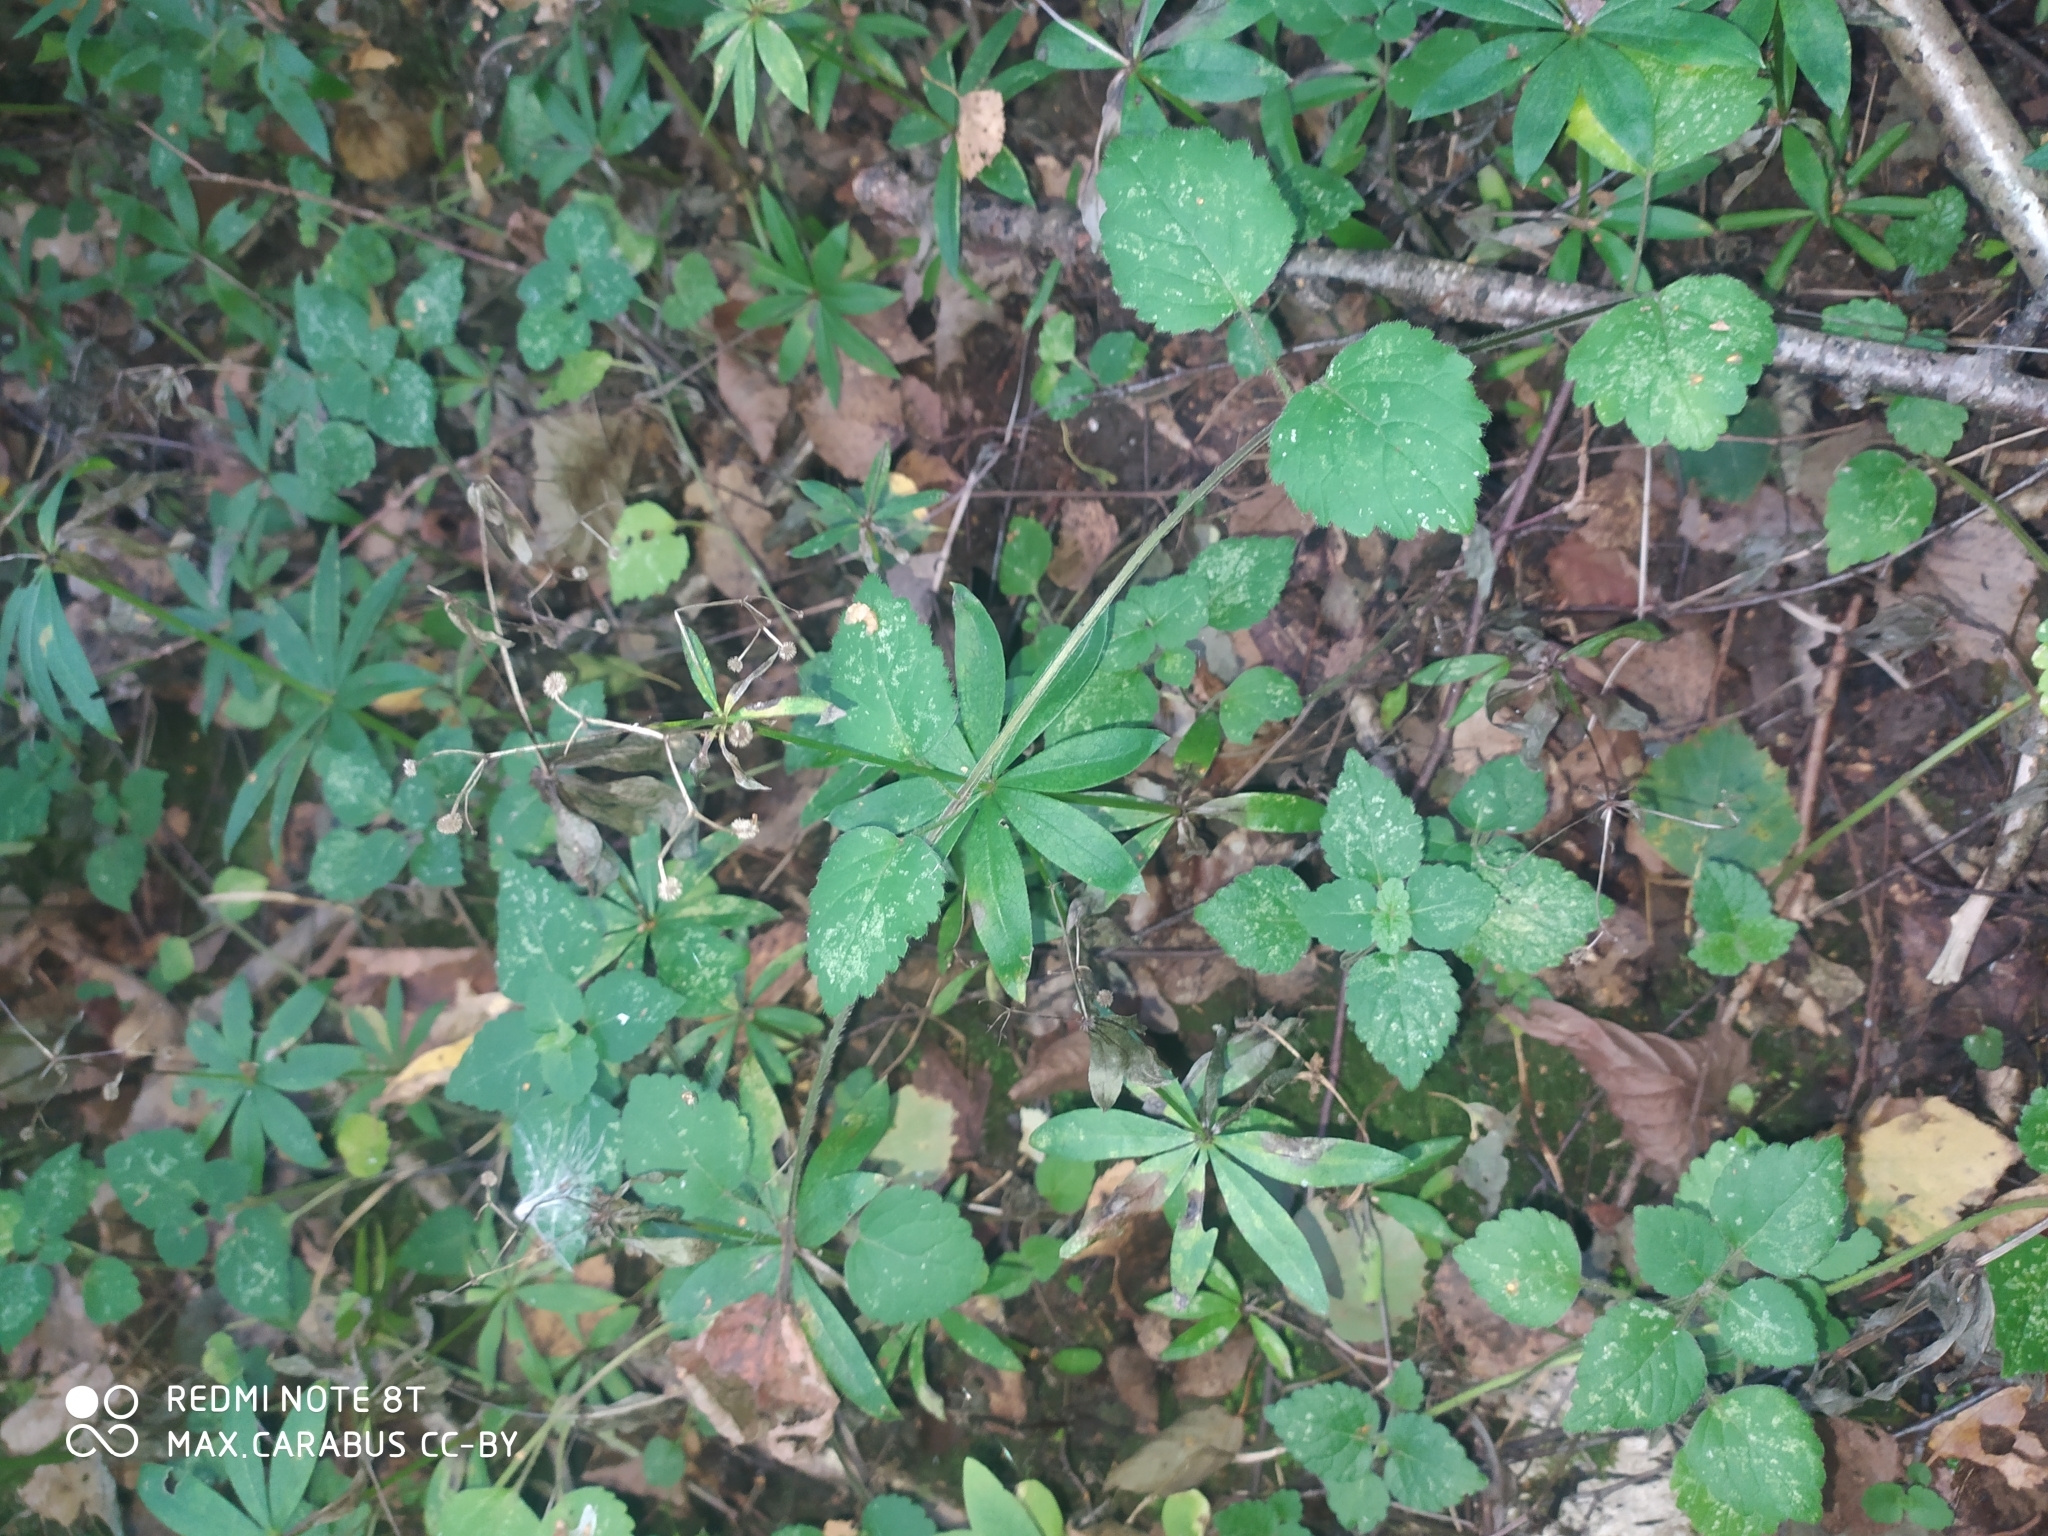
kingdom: Plantae
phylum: Tracheophyta
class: Magnoliopsida
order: Gentianales
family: Rubiaceae
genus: Galium
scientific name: Galium odoratum
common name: Sweet woodruff
